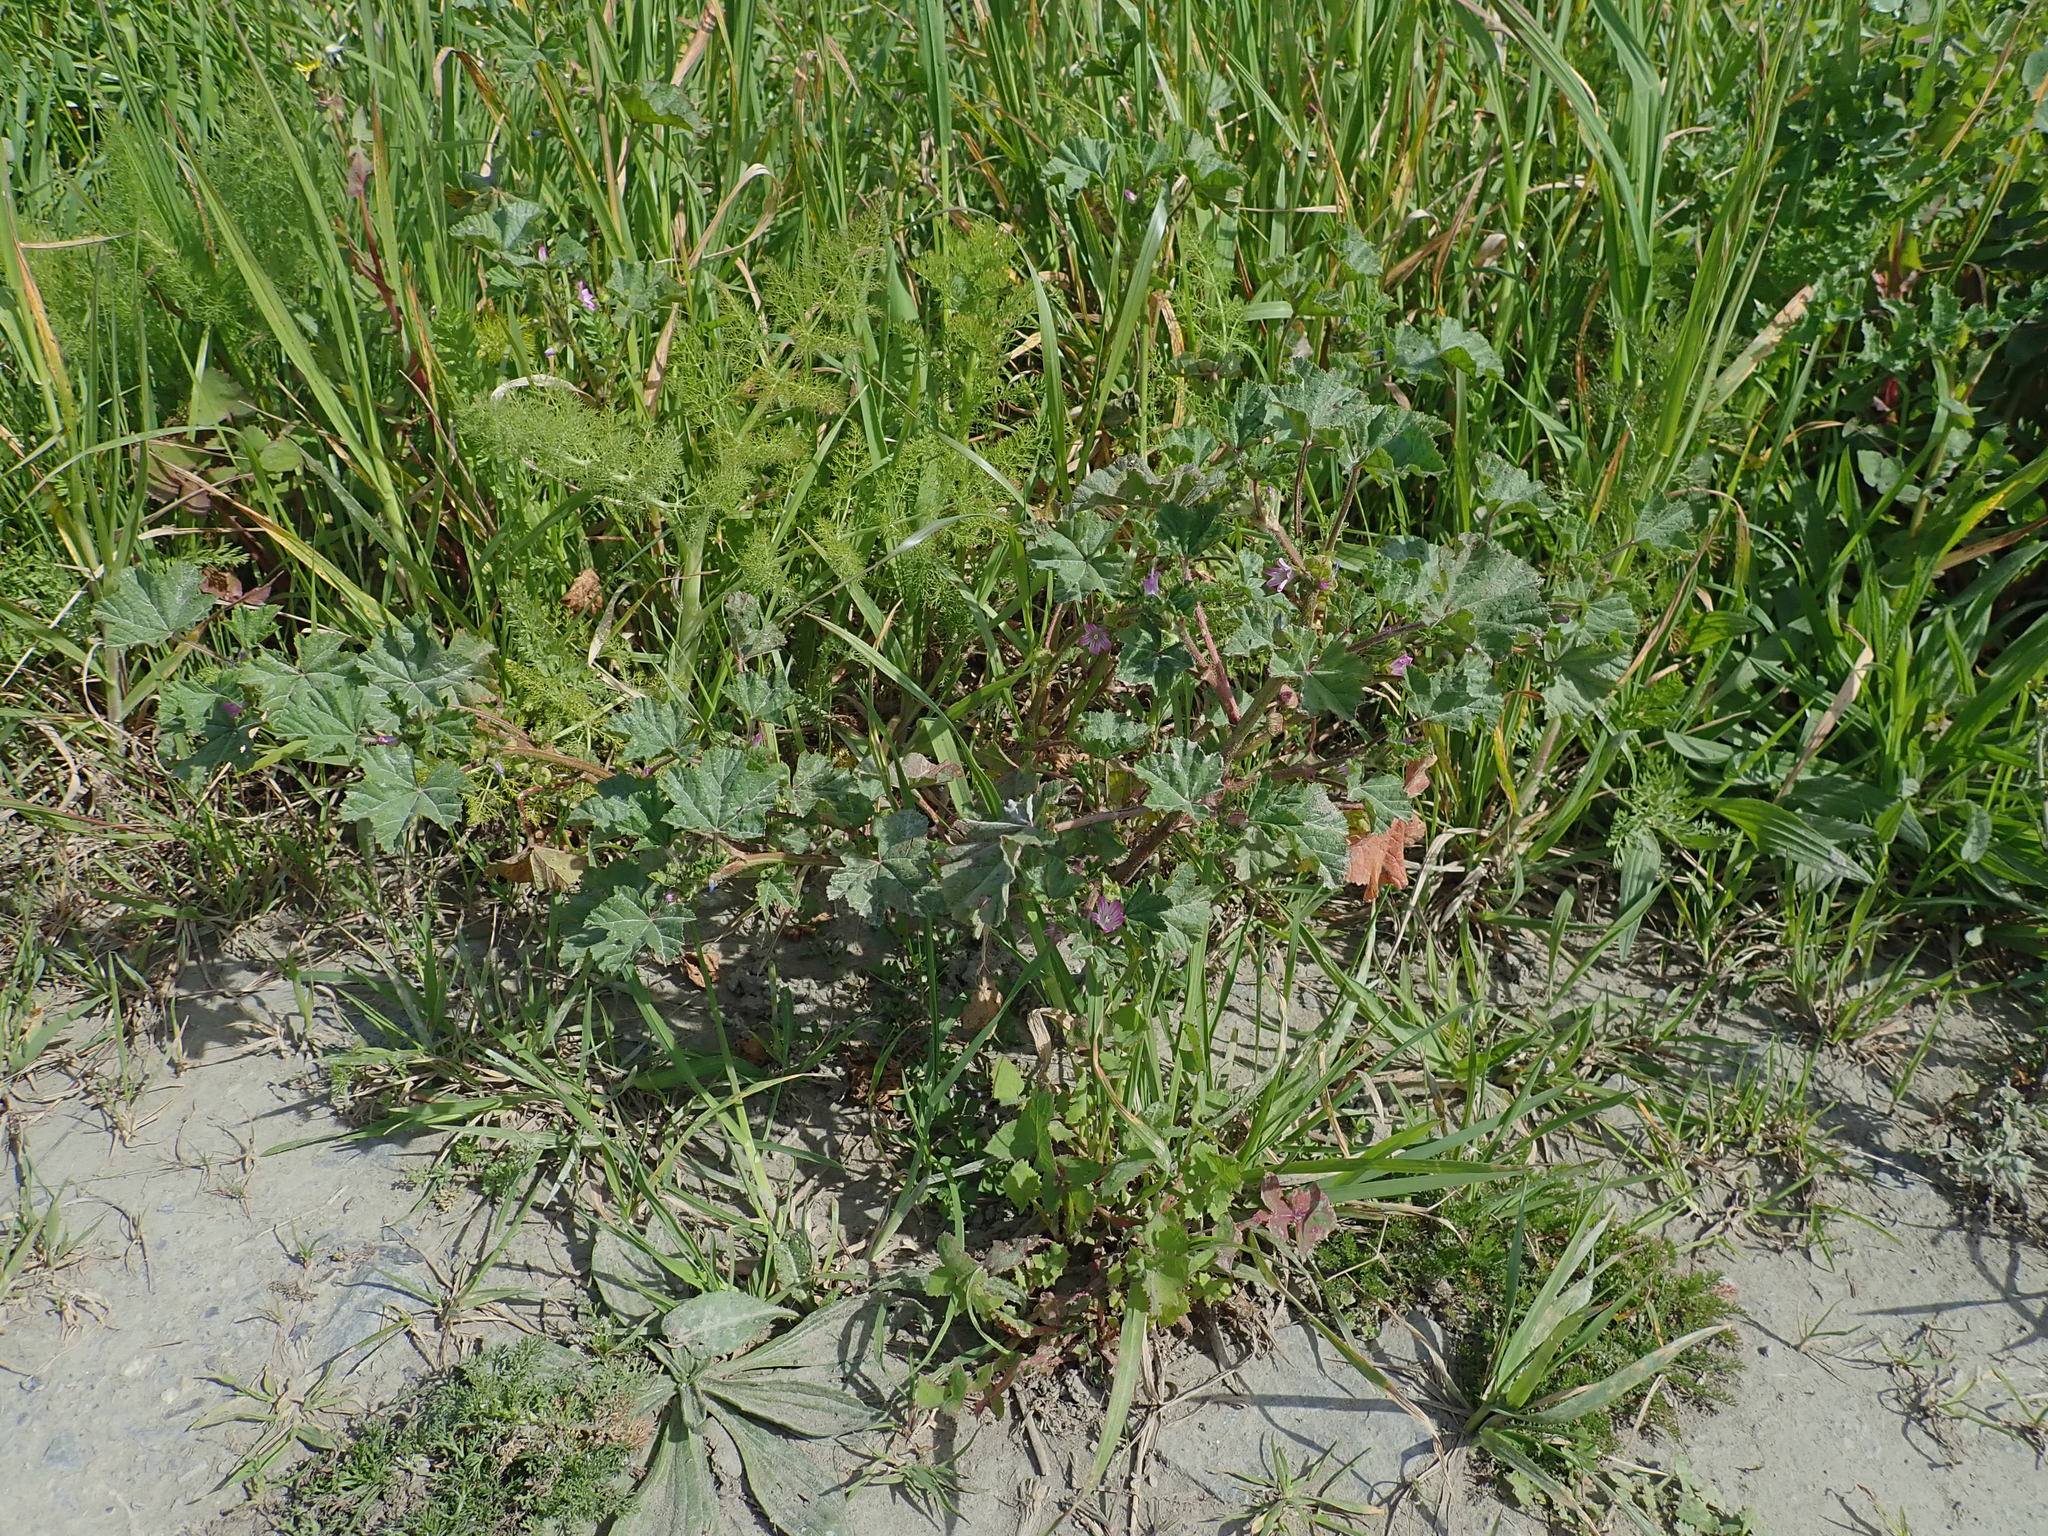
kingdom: Plantae
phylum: Tracheophyta
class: Magnoliopsida
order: Malvales
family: Malvaceae
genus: Malva
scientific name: Malva nicaeensis
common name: French mallow
